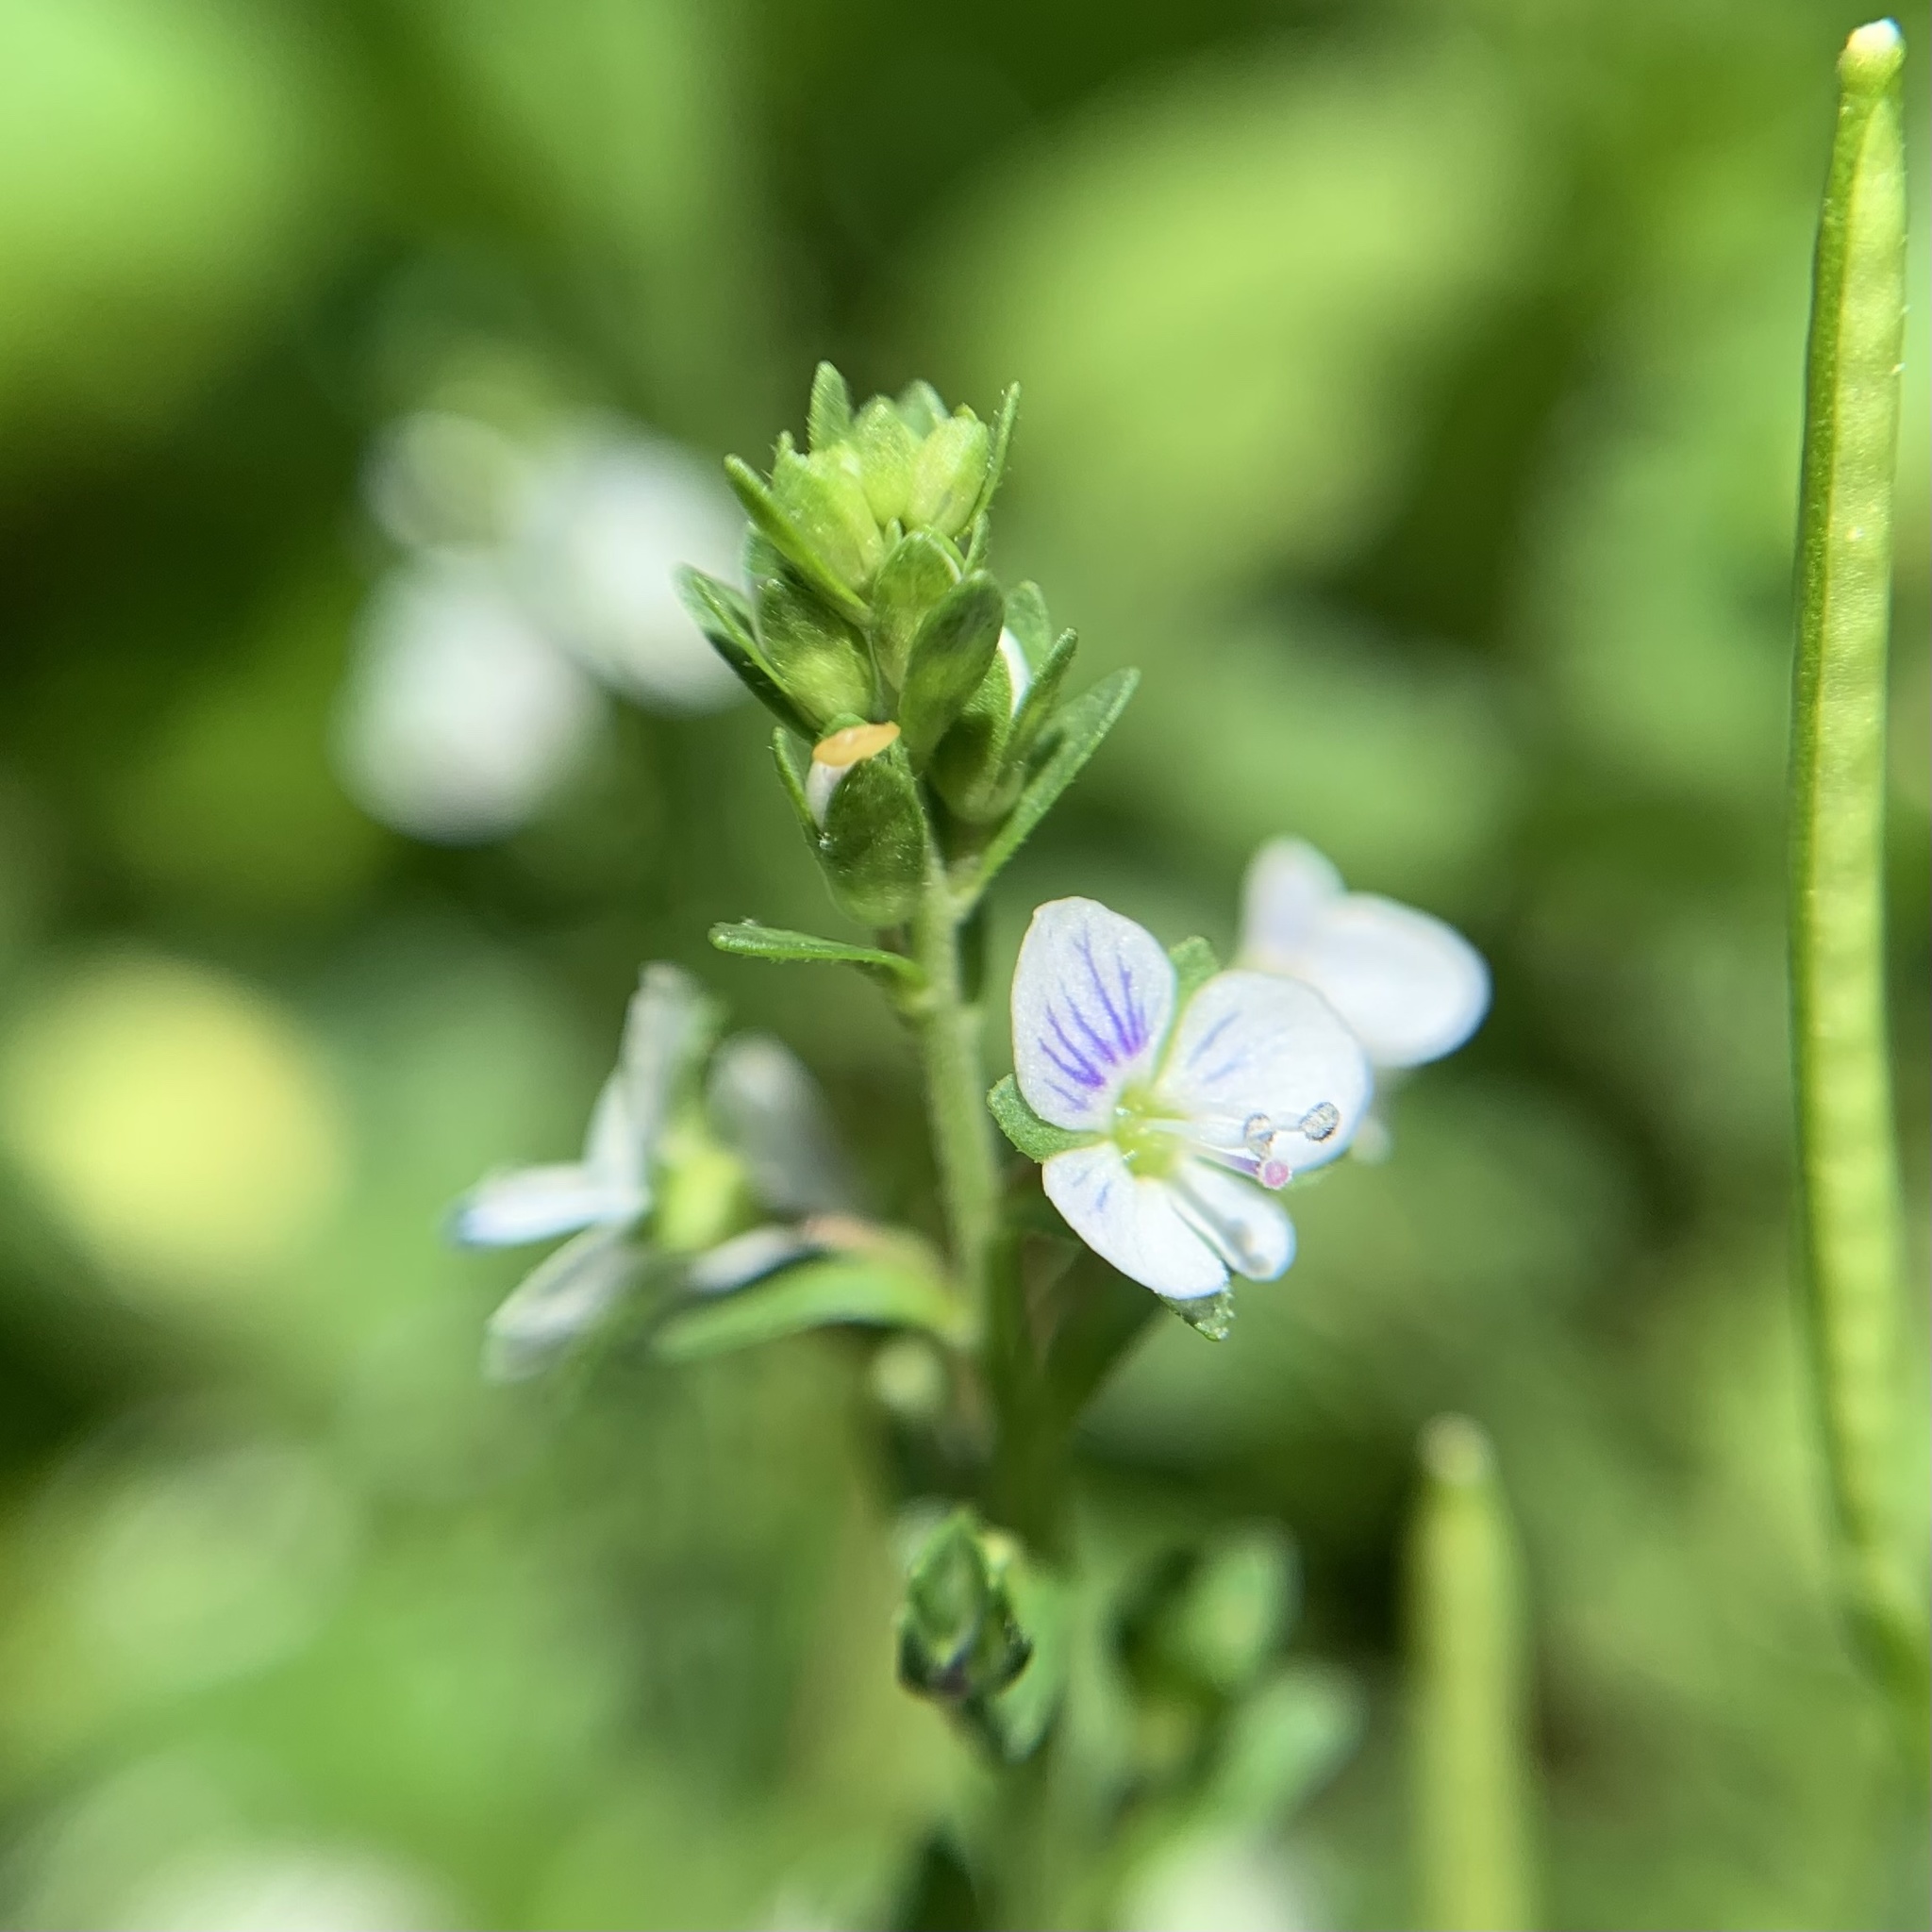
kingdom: Plantae
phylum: Tracheophyta
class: Magnoliopsida
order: Lamiales
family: Plantaginaceae
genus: Veronica
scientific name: Veronica serpyllifolia
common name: Thyme-leaved speedwell
